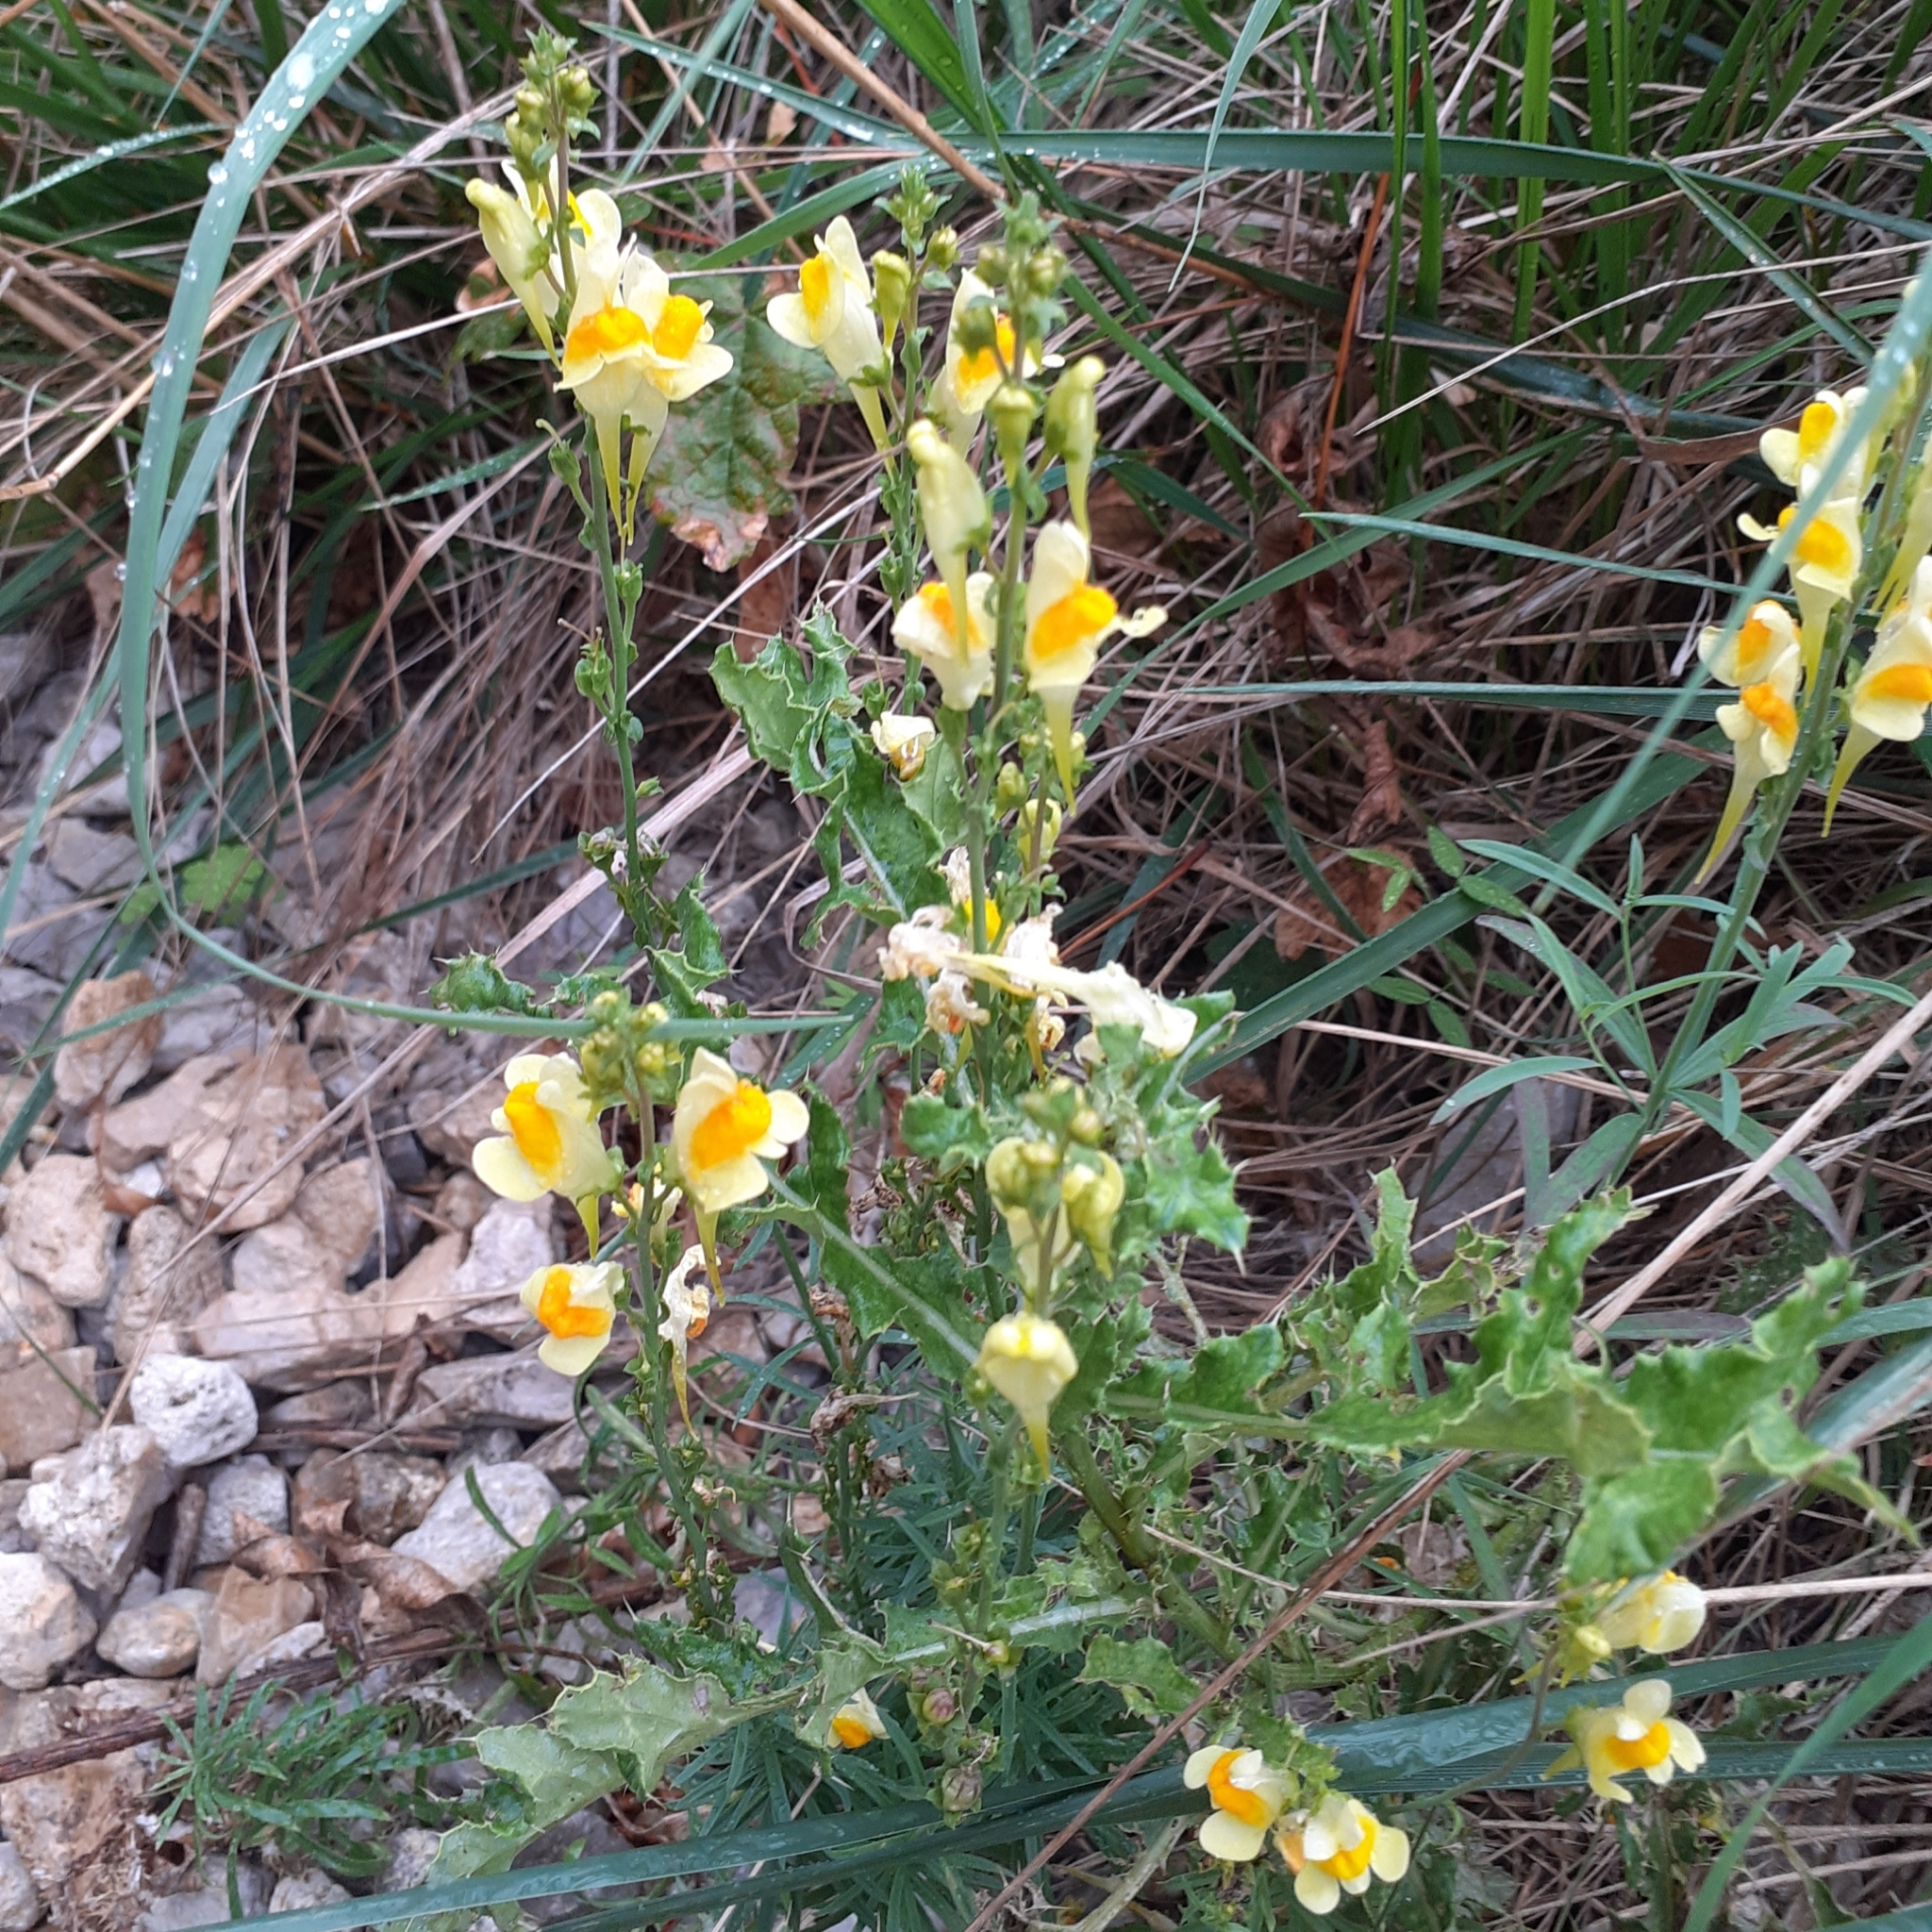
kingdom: Plantae
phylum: Tracheophyta
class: Magnoliopsida
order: Lamiales
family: Plantaginaceae
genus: Linaria
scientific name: Linaria vulgaris
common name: Butter and eggs
